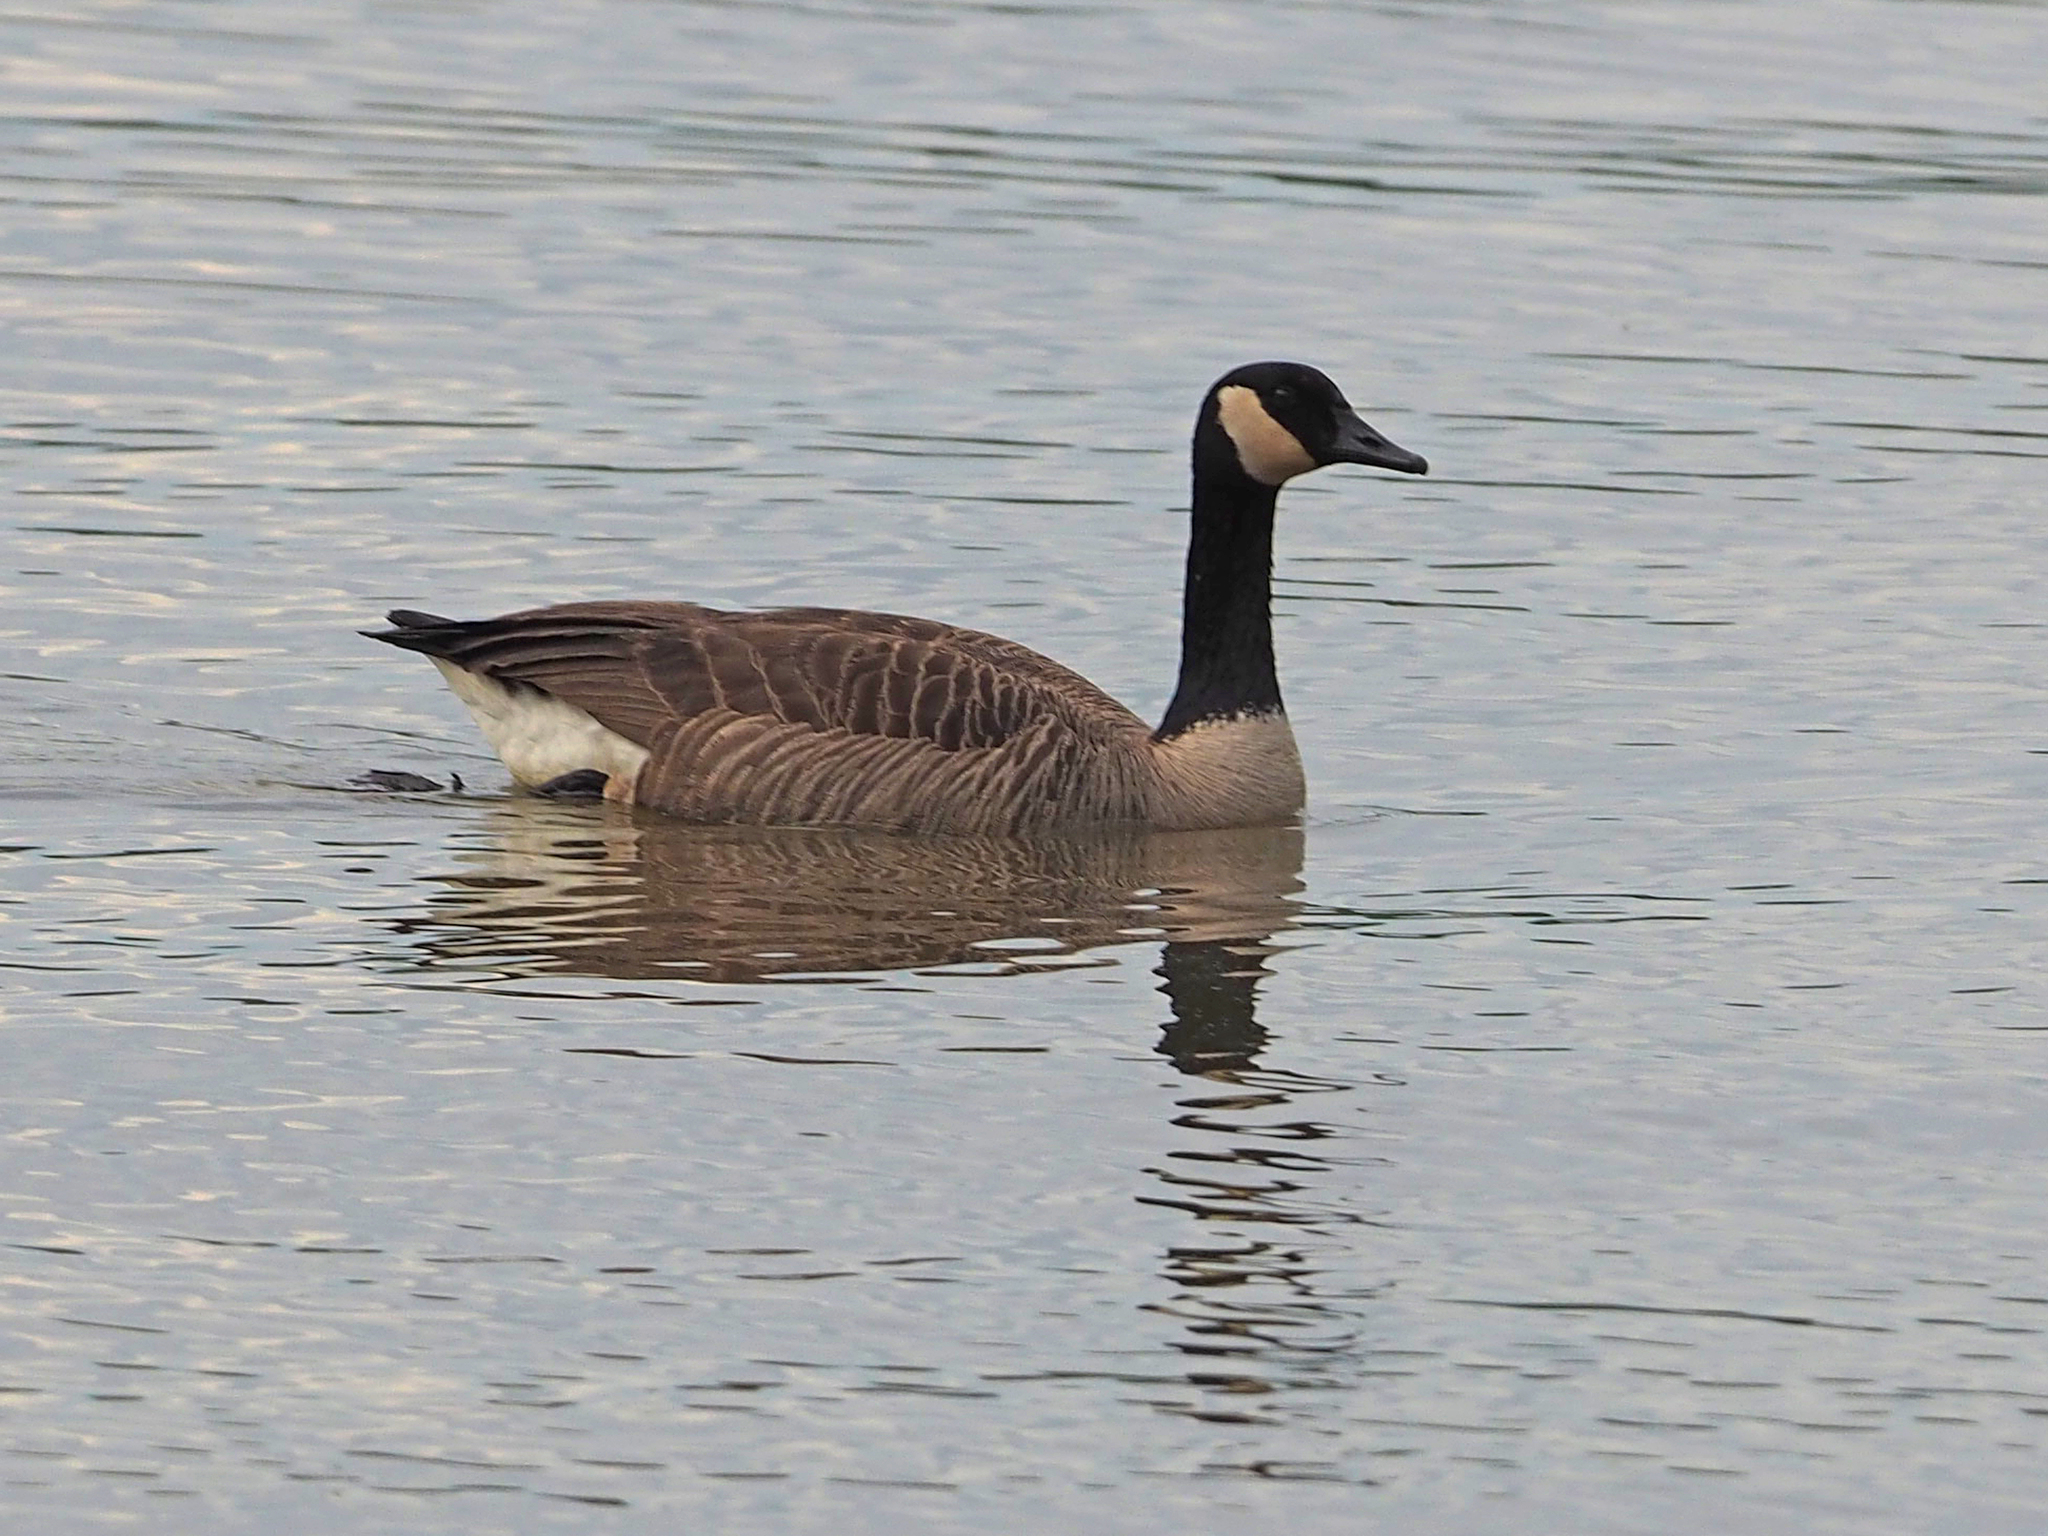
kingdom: Animalia
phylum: Chordata
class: Aves
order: Anseriformes
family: Anatidae
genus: Branta
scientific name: Branta canadensis
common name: Canada goose
